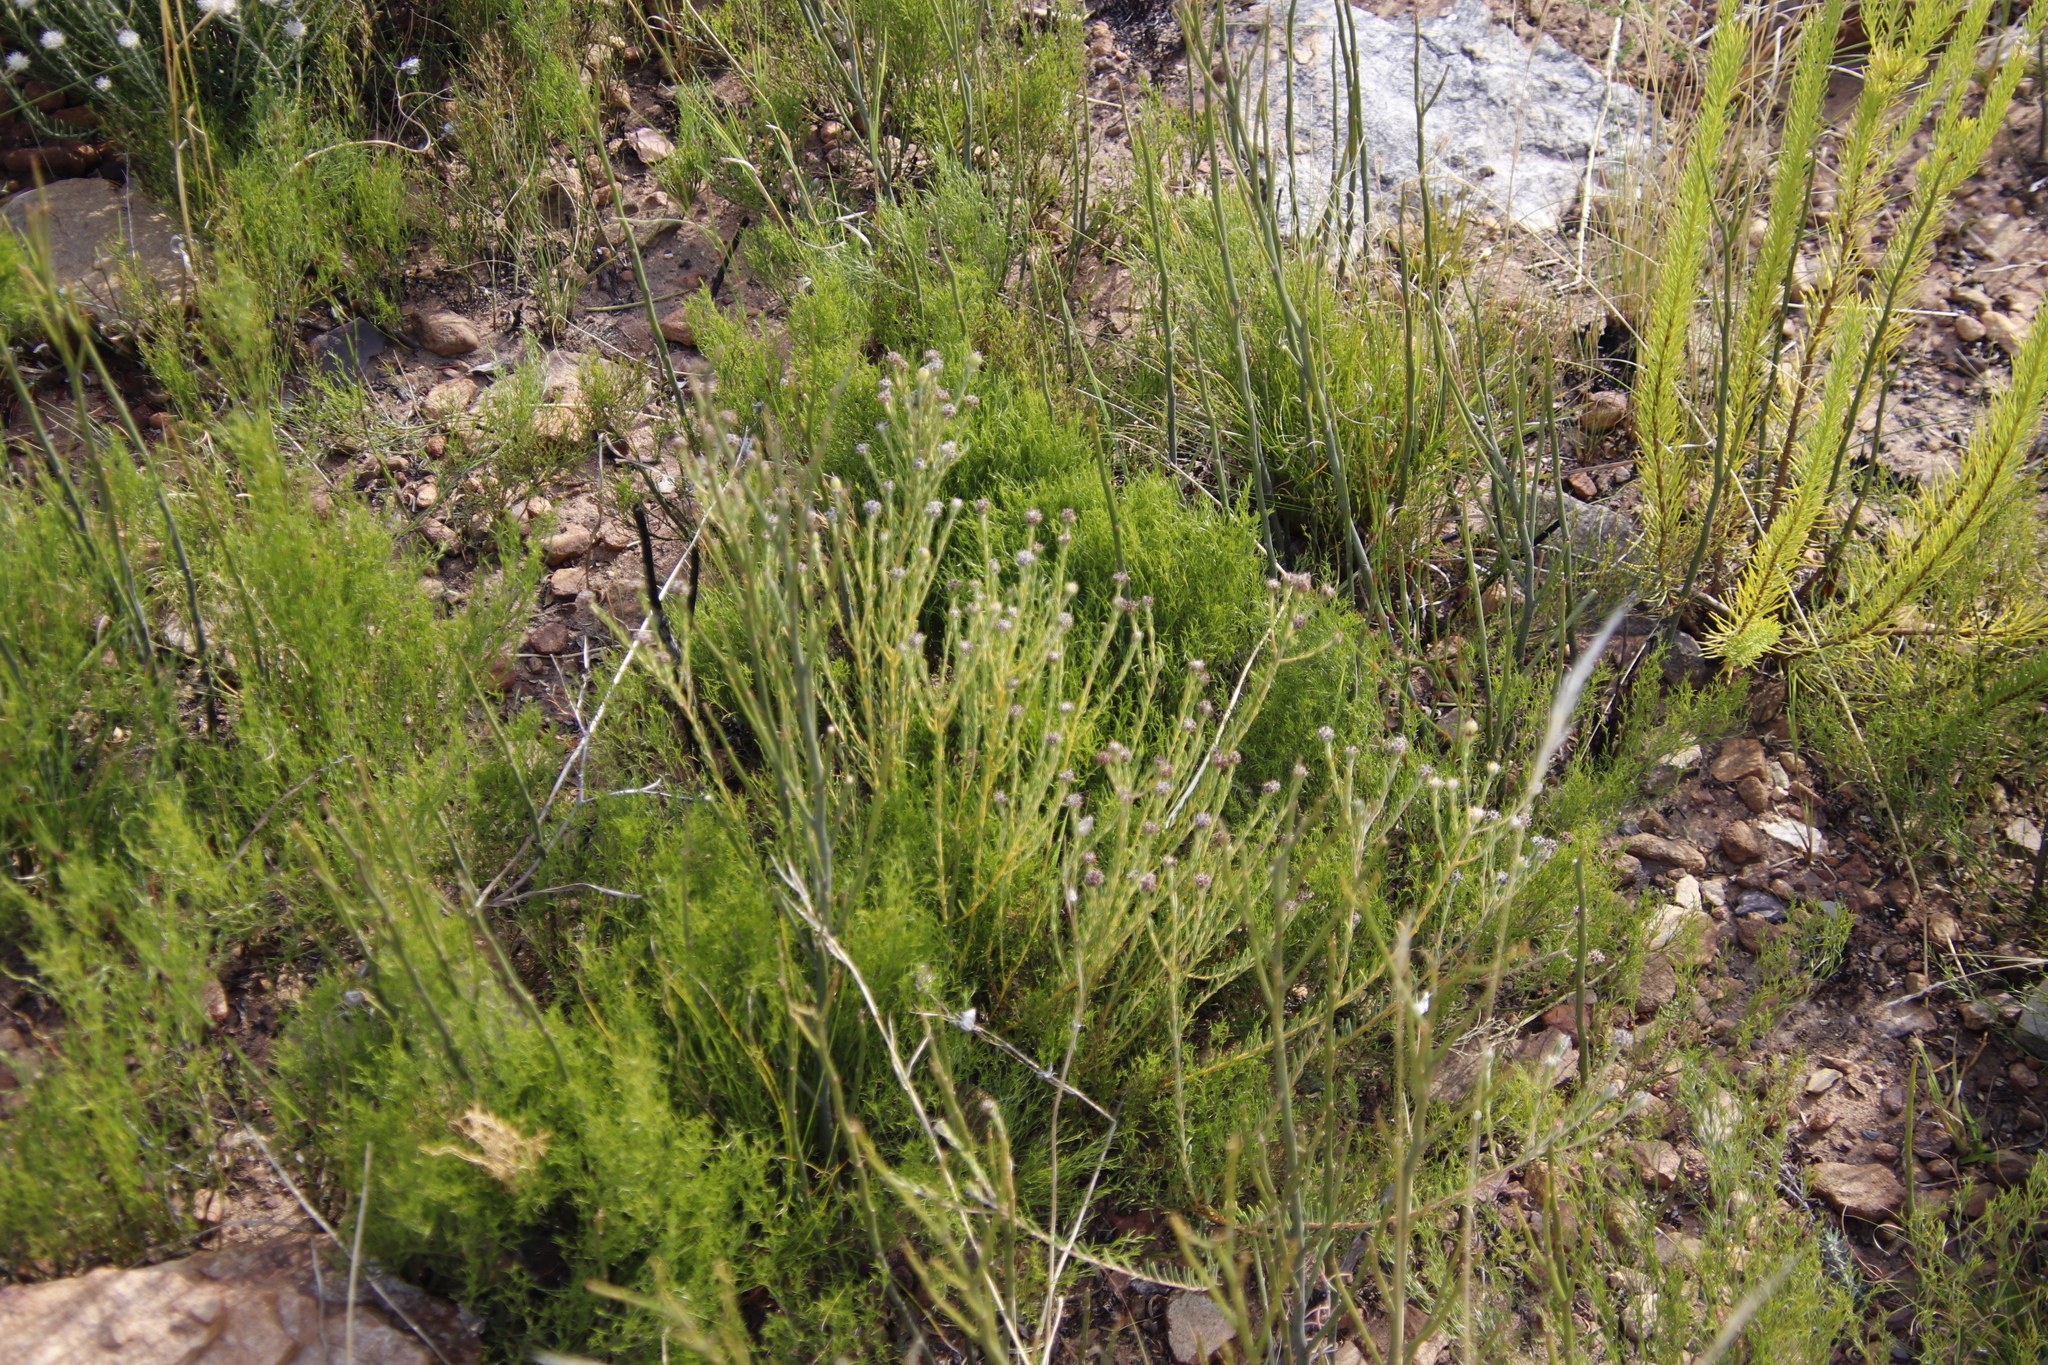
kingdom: Plantae
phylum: Tracheophyta
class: Magnoliopsida
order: Rosales
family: Rhamnaceae
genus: Phylica
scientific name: Phylica atrata
